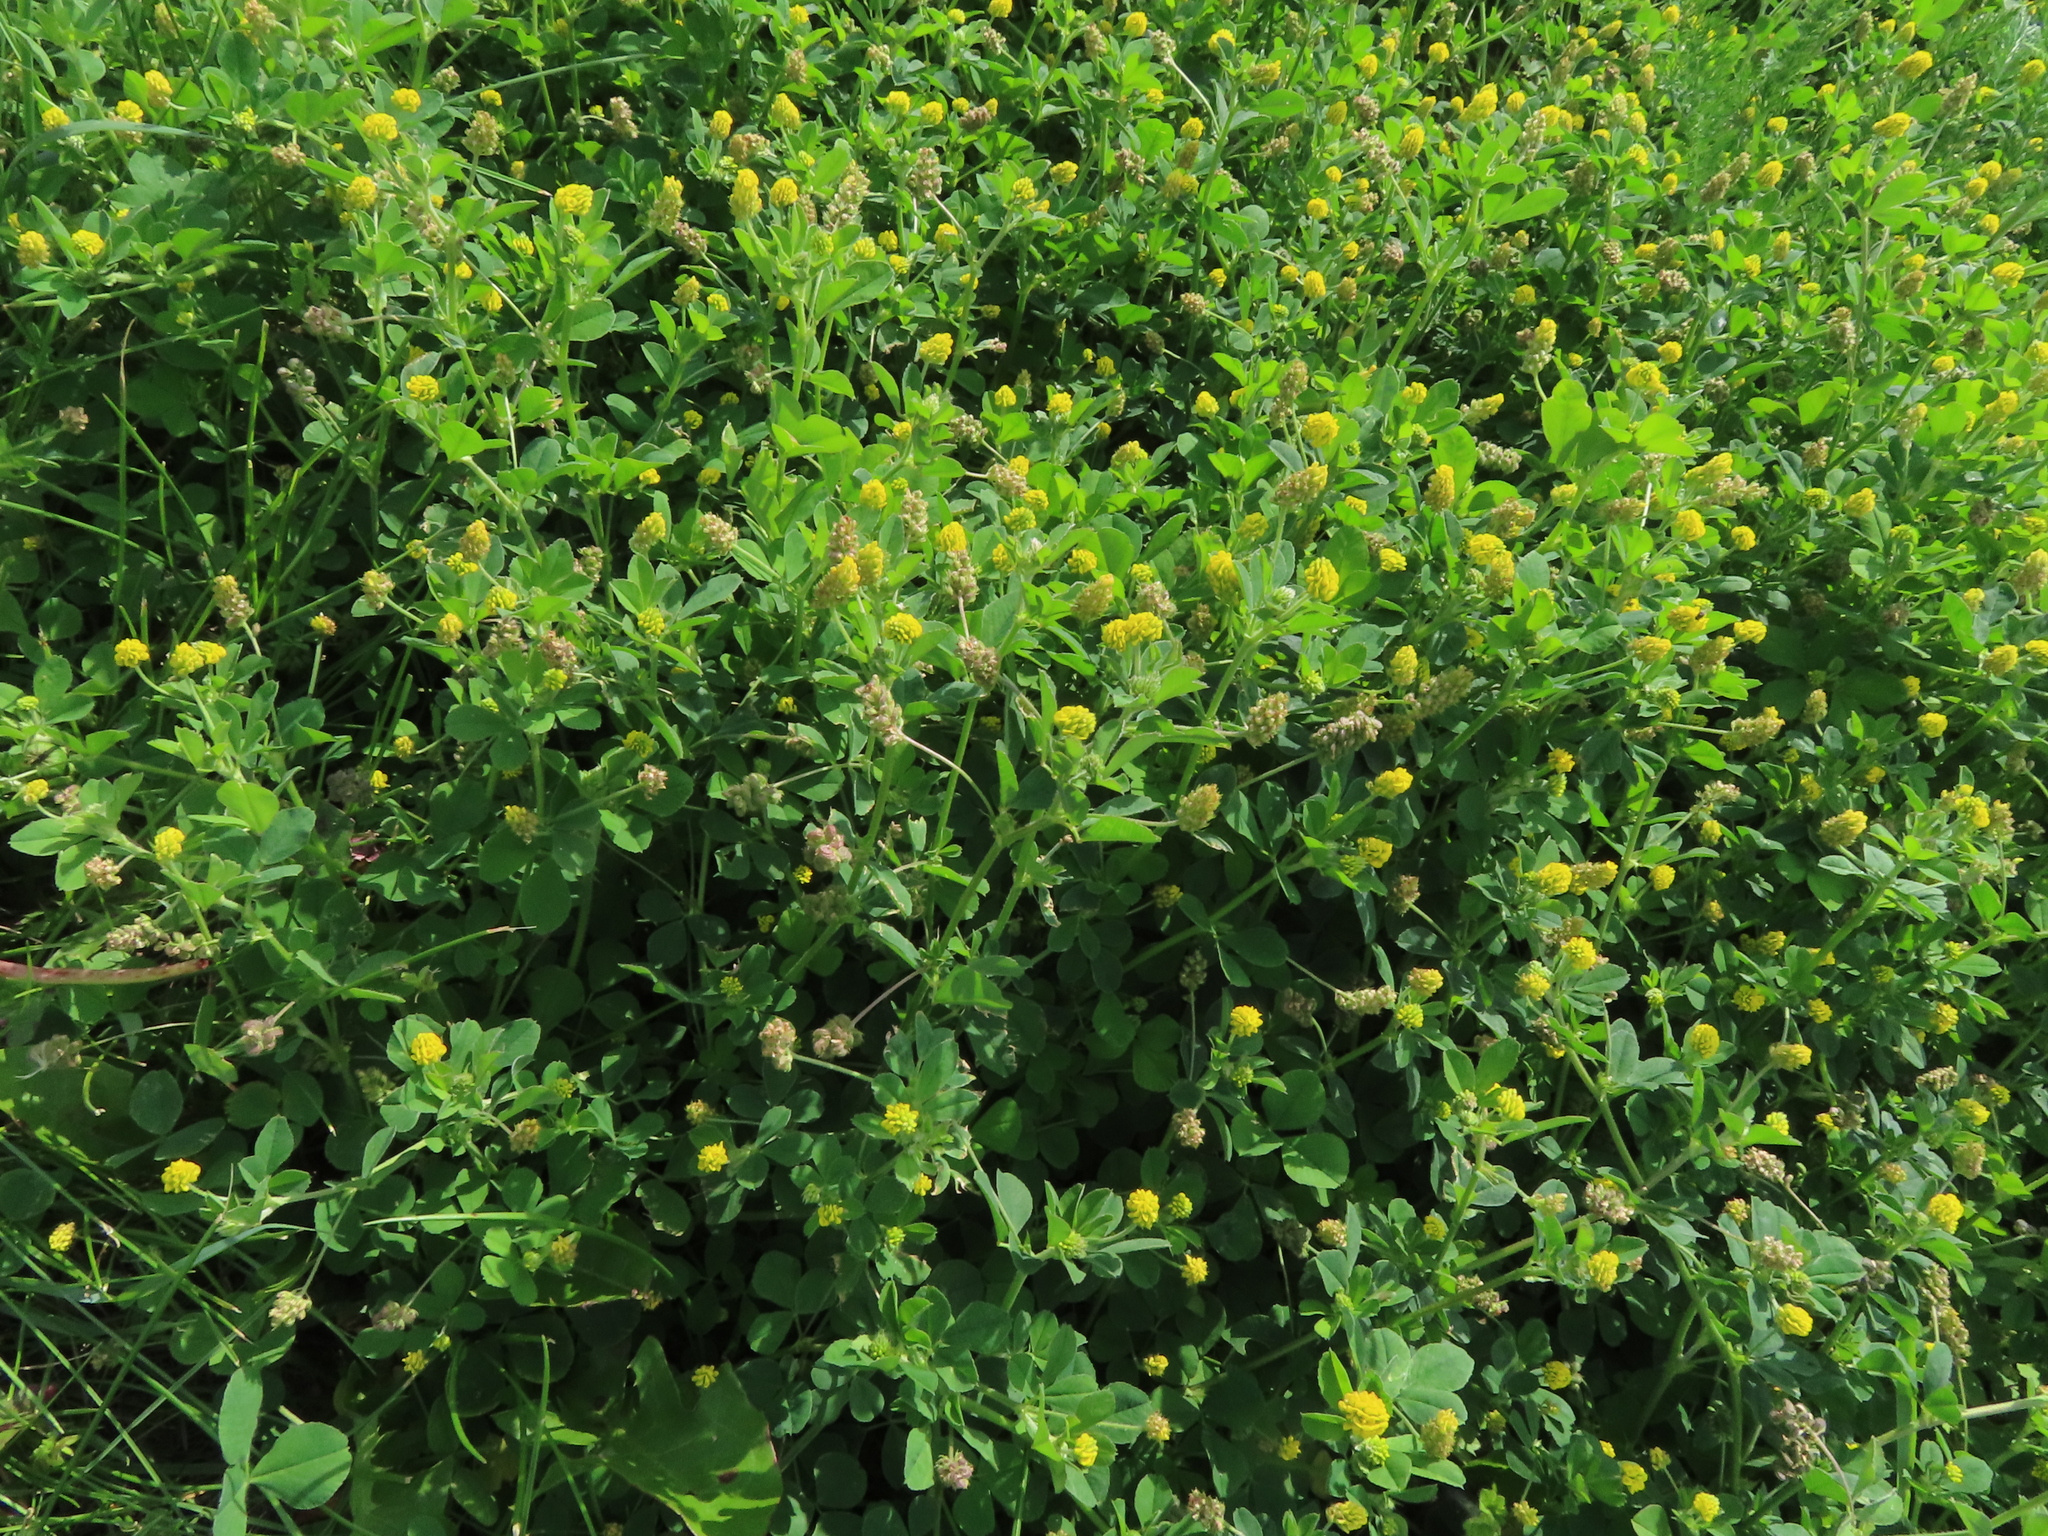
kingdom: Plantae
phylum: Tracheophyta
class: Magnoliopsida
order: Fabales
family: Fabaceae
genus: Medicago
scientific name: Medicago lupulina
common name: Black medick
